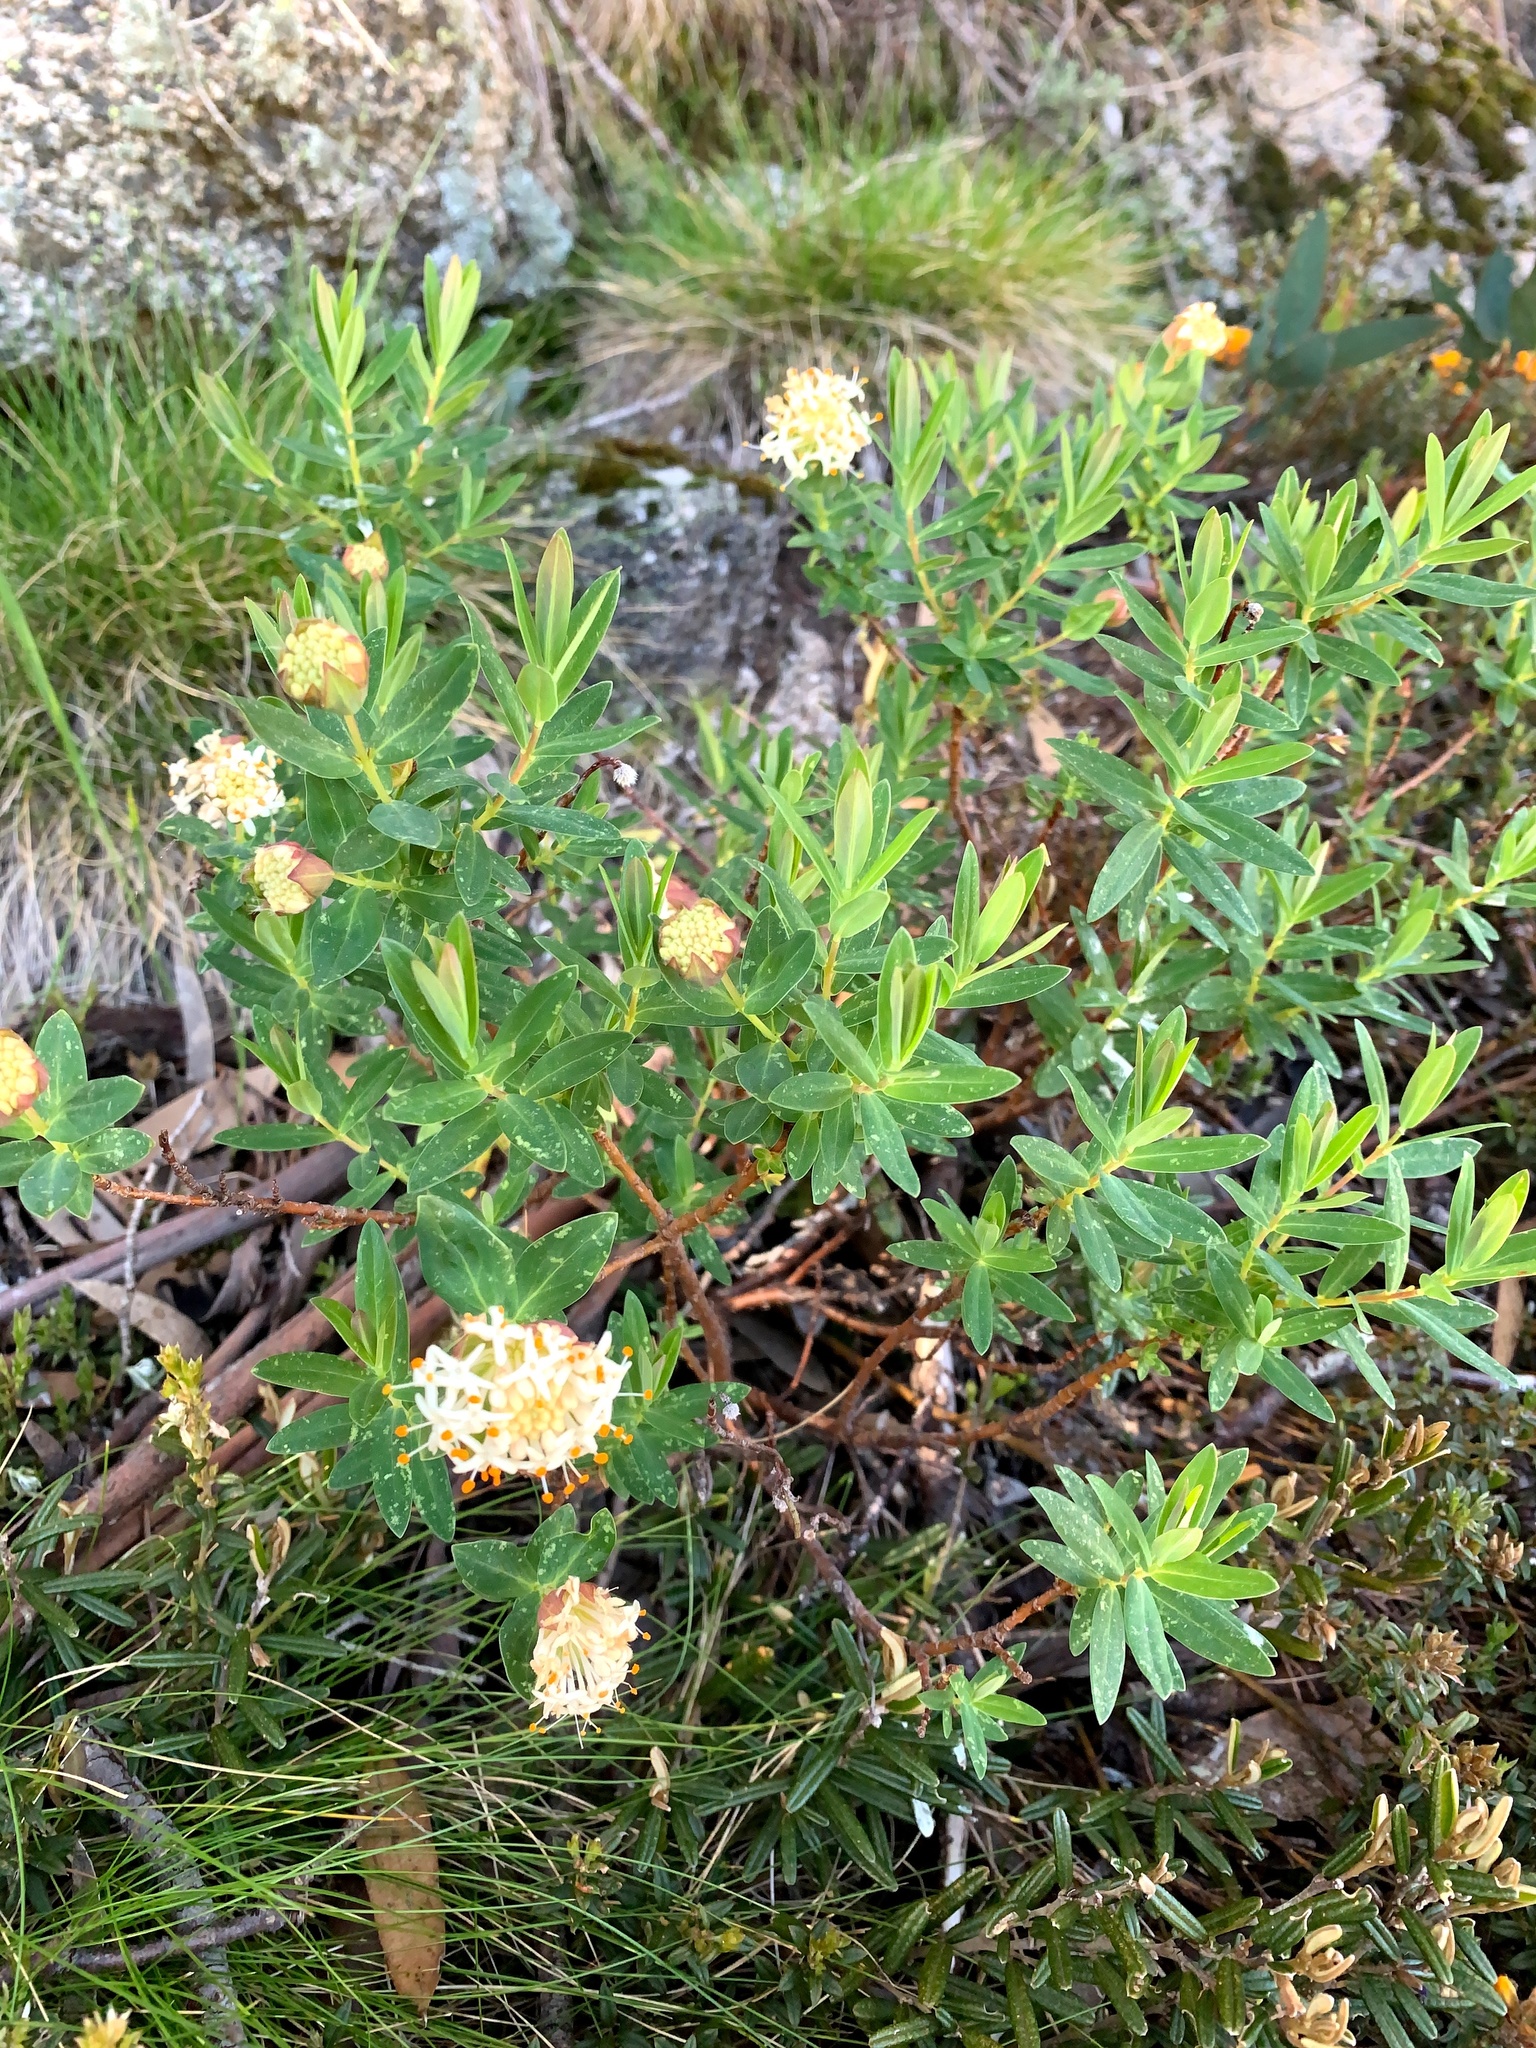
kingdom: Plantae
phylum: Tracheophyta
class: Magnoliopsida
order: Malvales
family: Thymelaeaceae
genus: Pimelea
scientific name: Pimelea ligustrina
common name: Tall riceflower
